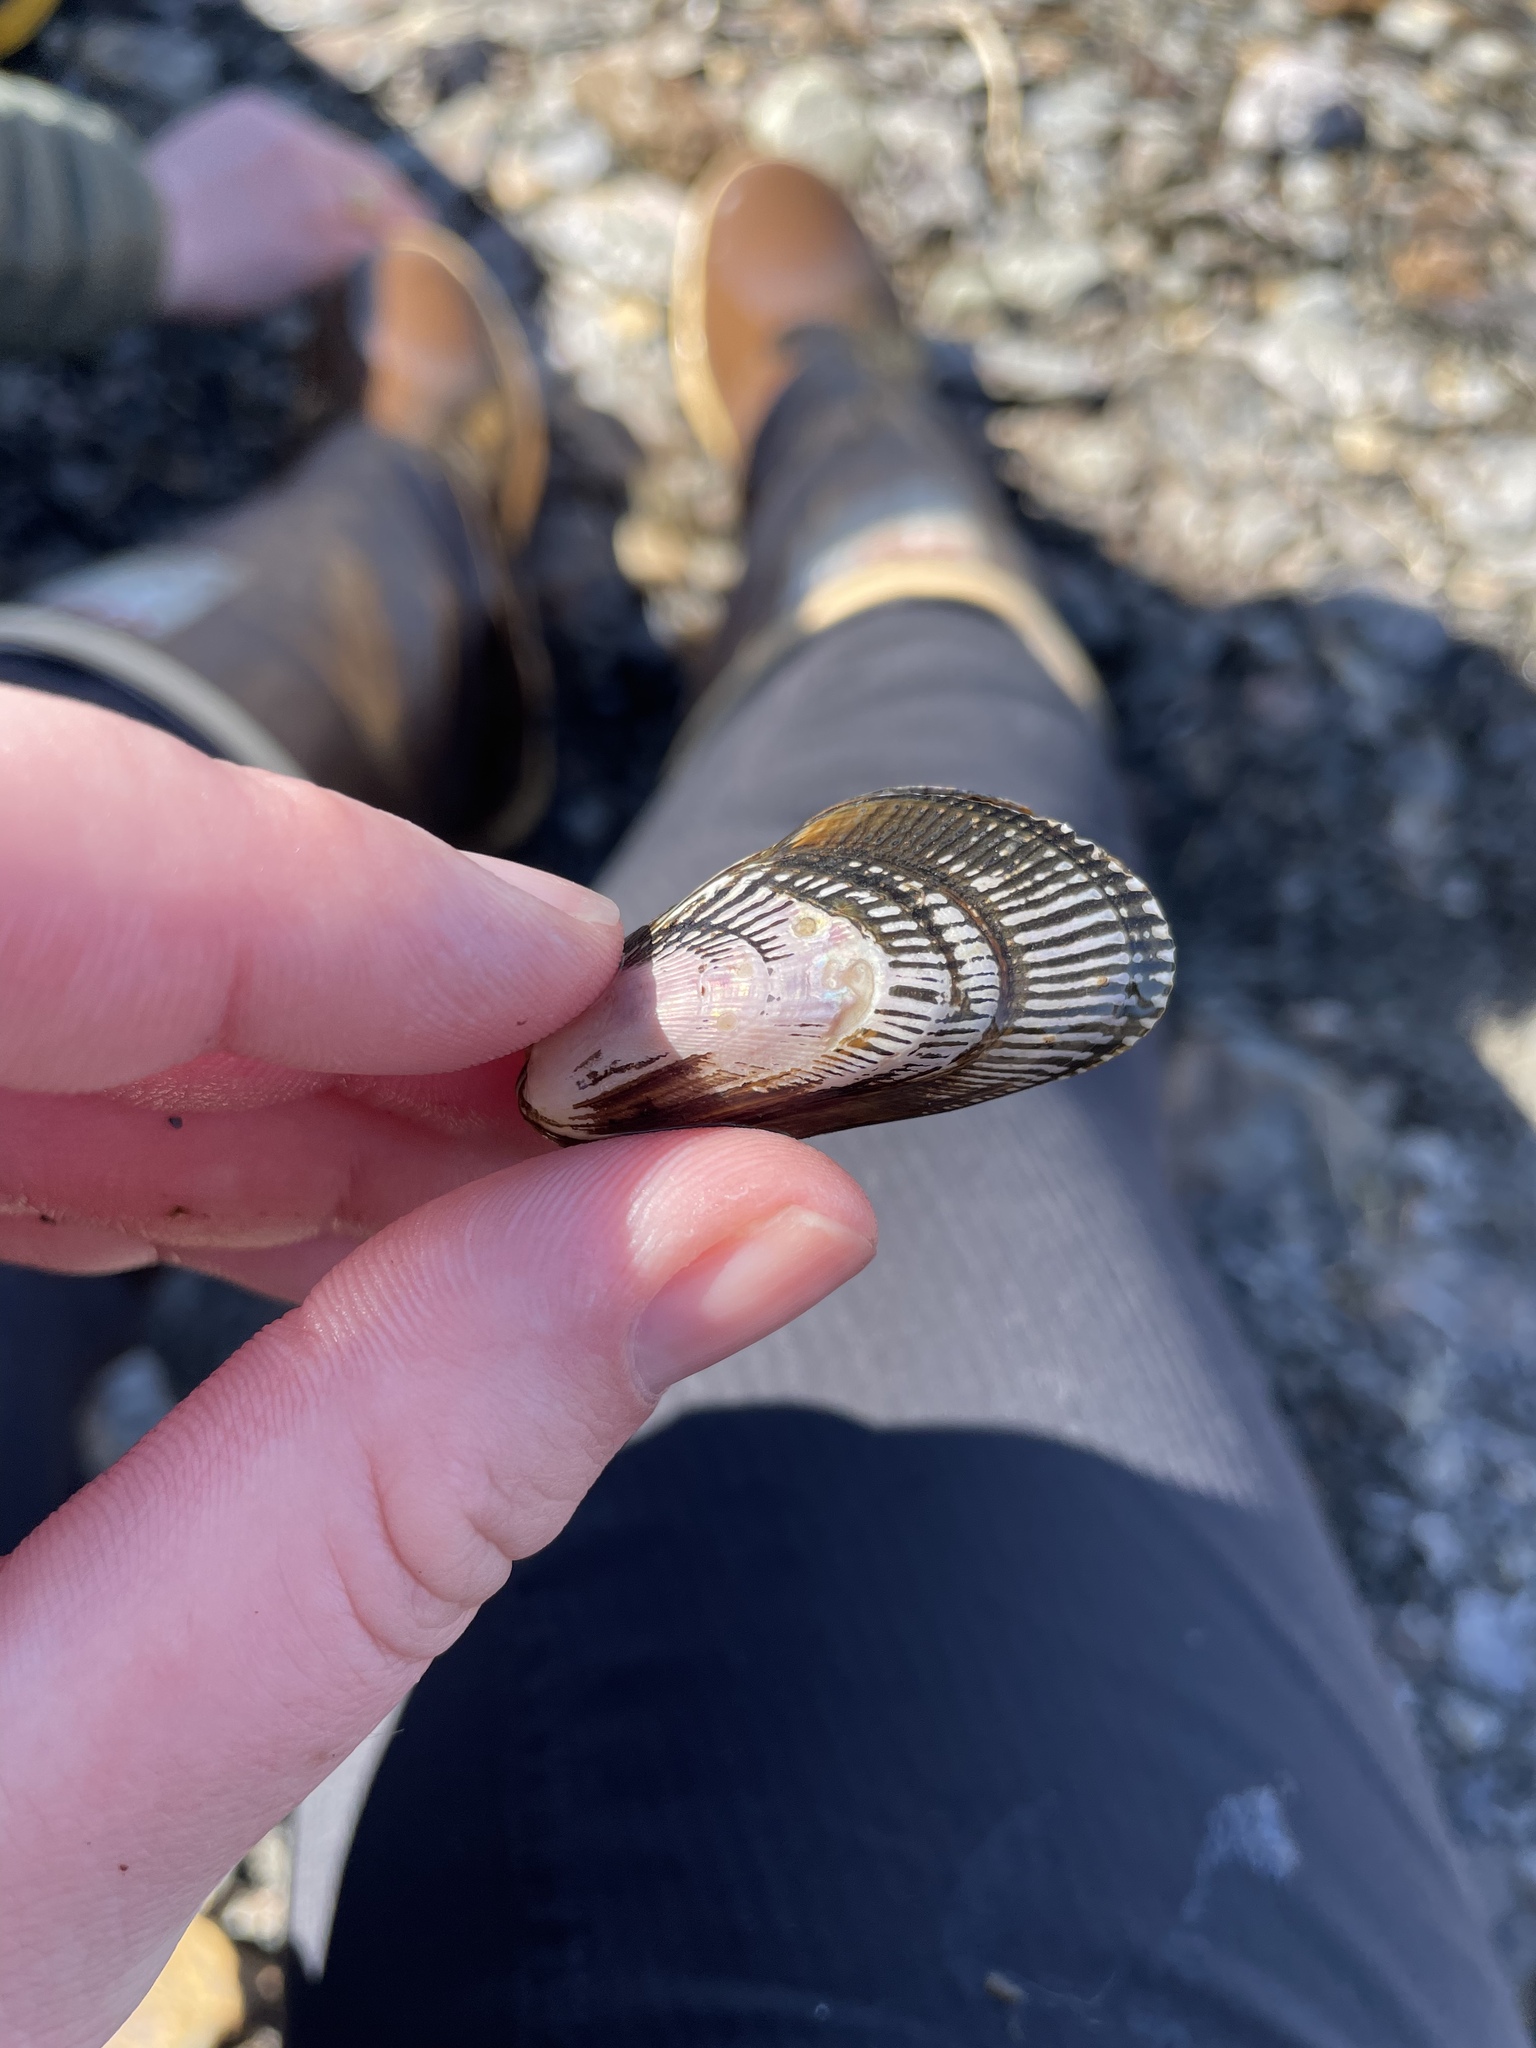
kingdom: Animalia
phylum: Mollusca
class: Bivalvia
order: Mytilida
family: Mytilidae
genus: Geukensia
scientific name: Geukensia demissa
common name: Ribbed mussel
